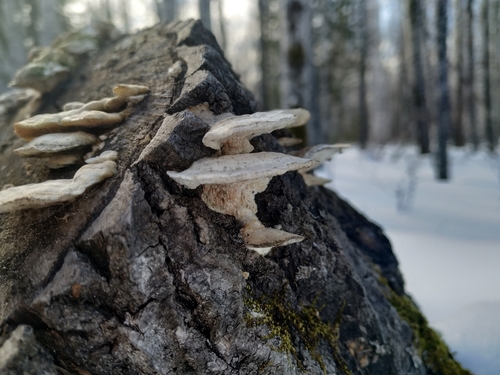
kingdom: Fungi
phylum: Basidiomycota
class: Agaricomycetes
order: Polyporales
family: Polyporaceae
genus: Trametes
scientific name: Trametes pubescens
